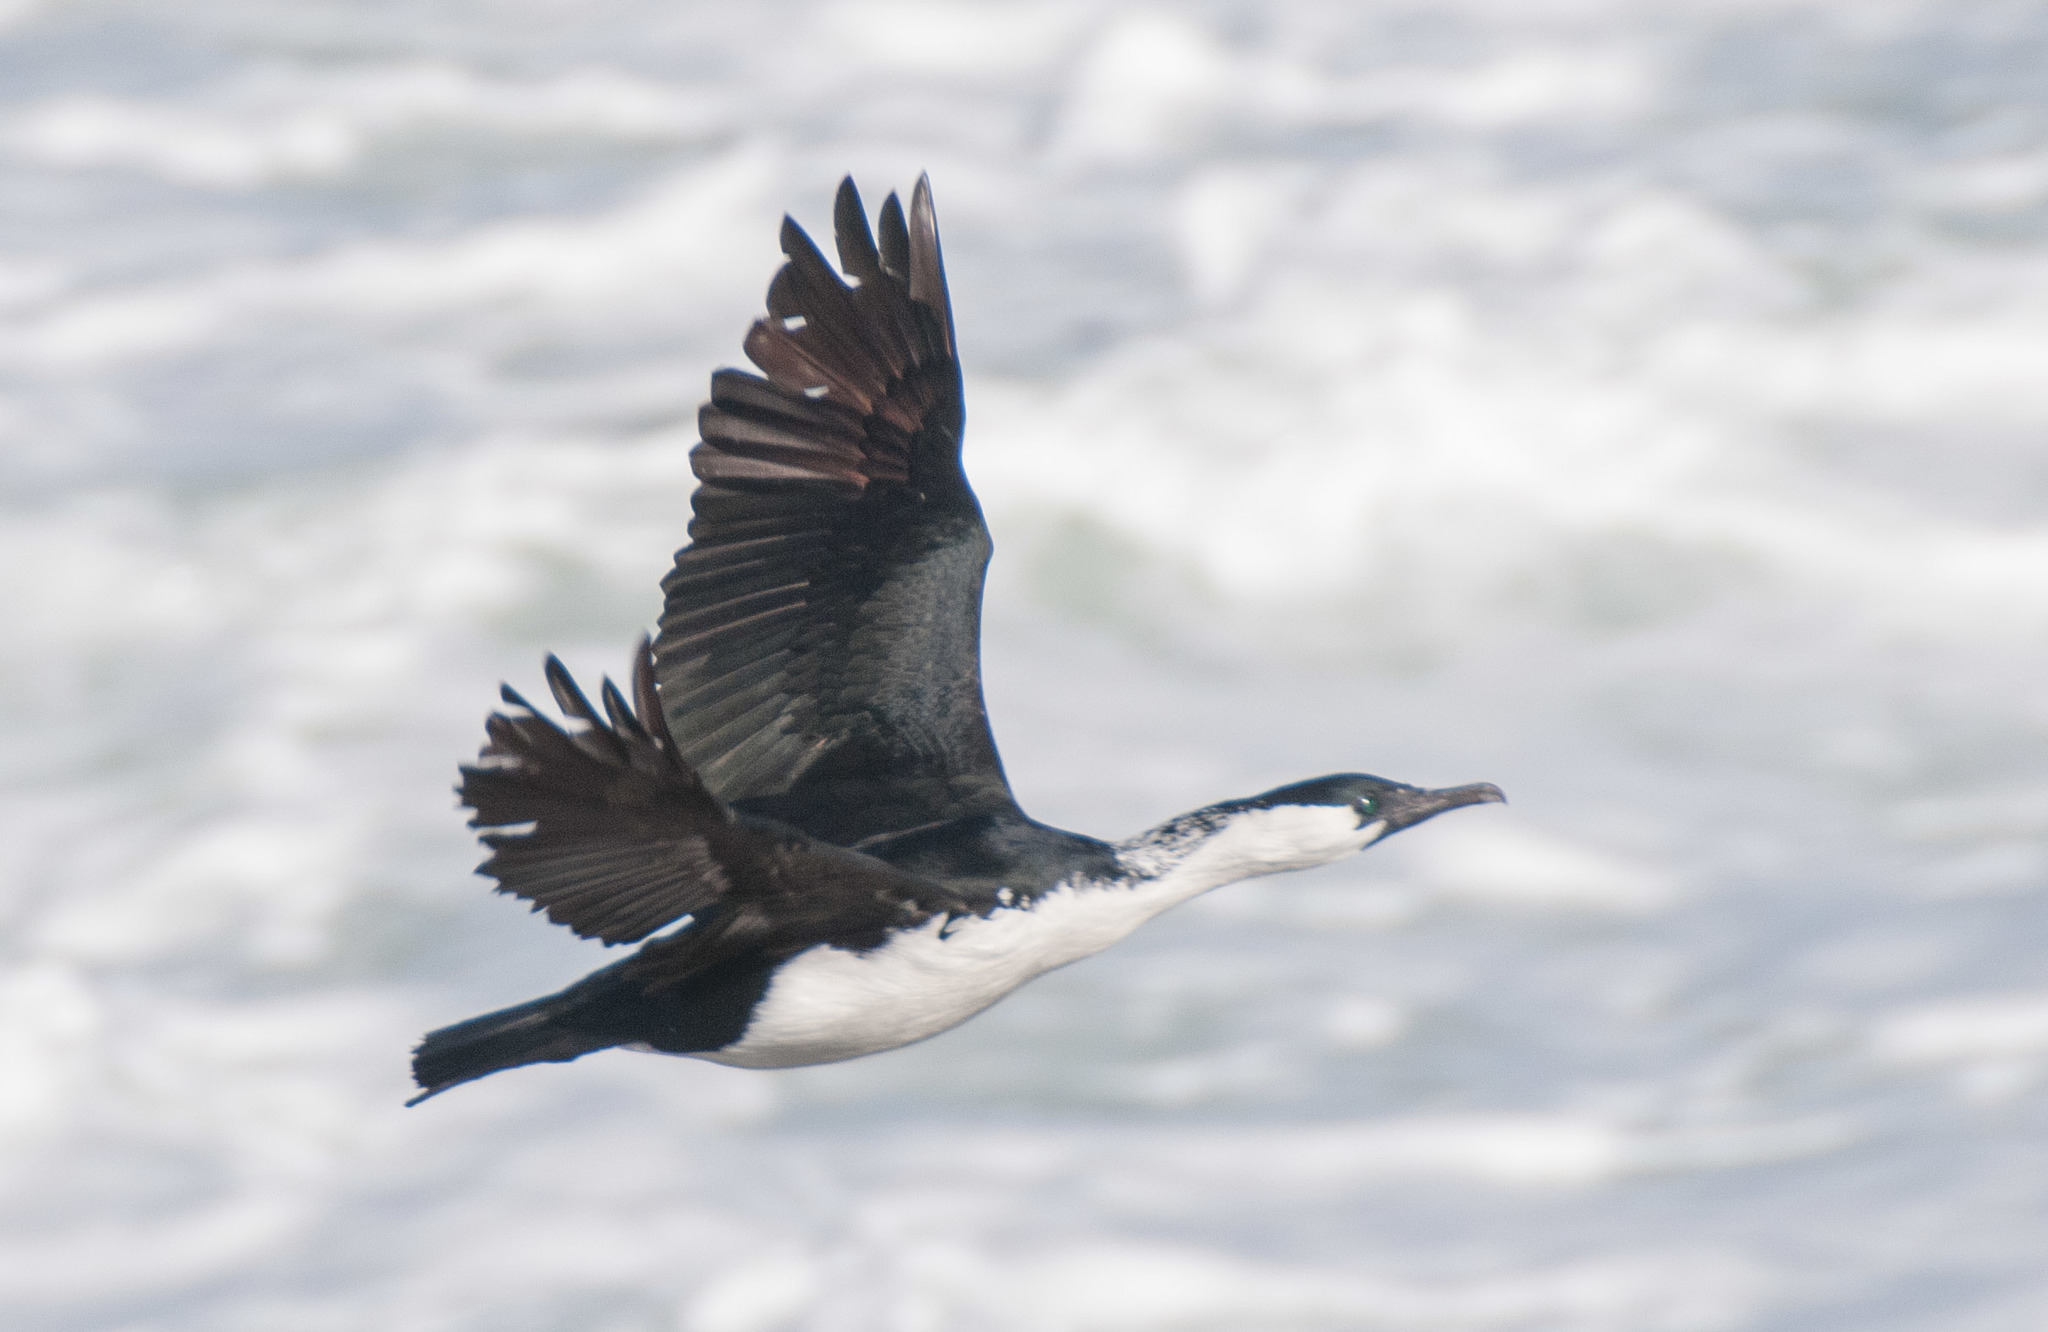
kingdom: Animalia
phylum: Chordata
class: Aves
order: Suliformes
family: Phalacrocoracidae
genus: Phalacrocorax
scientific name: Phalacrocorax fuscescens
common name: Black-faced cormorant
